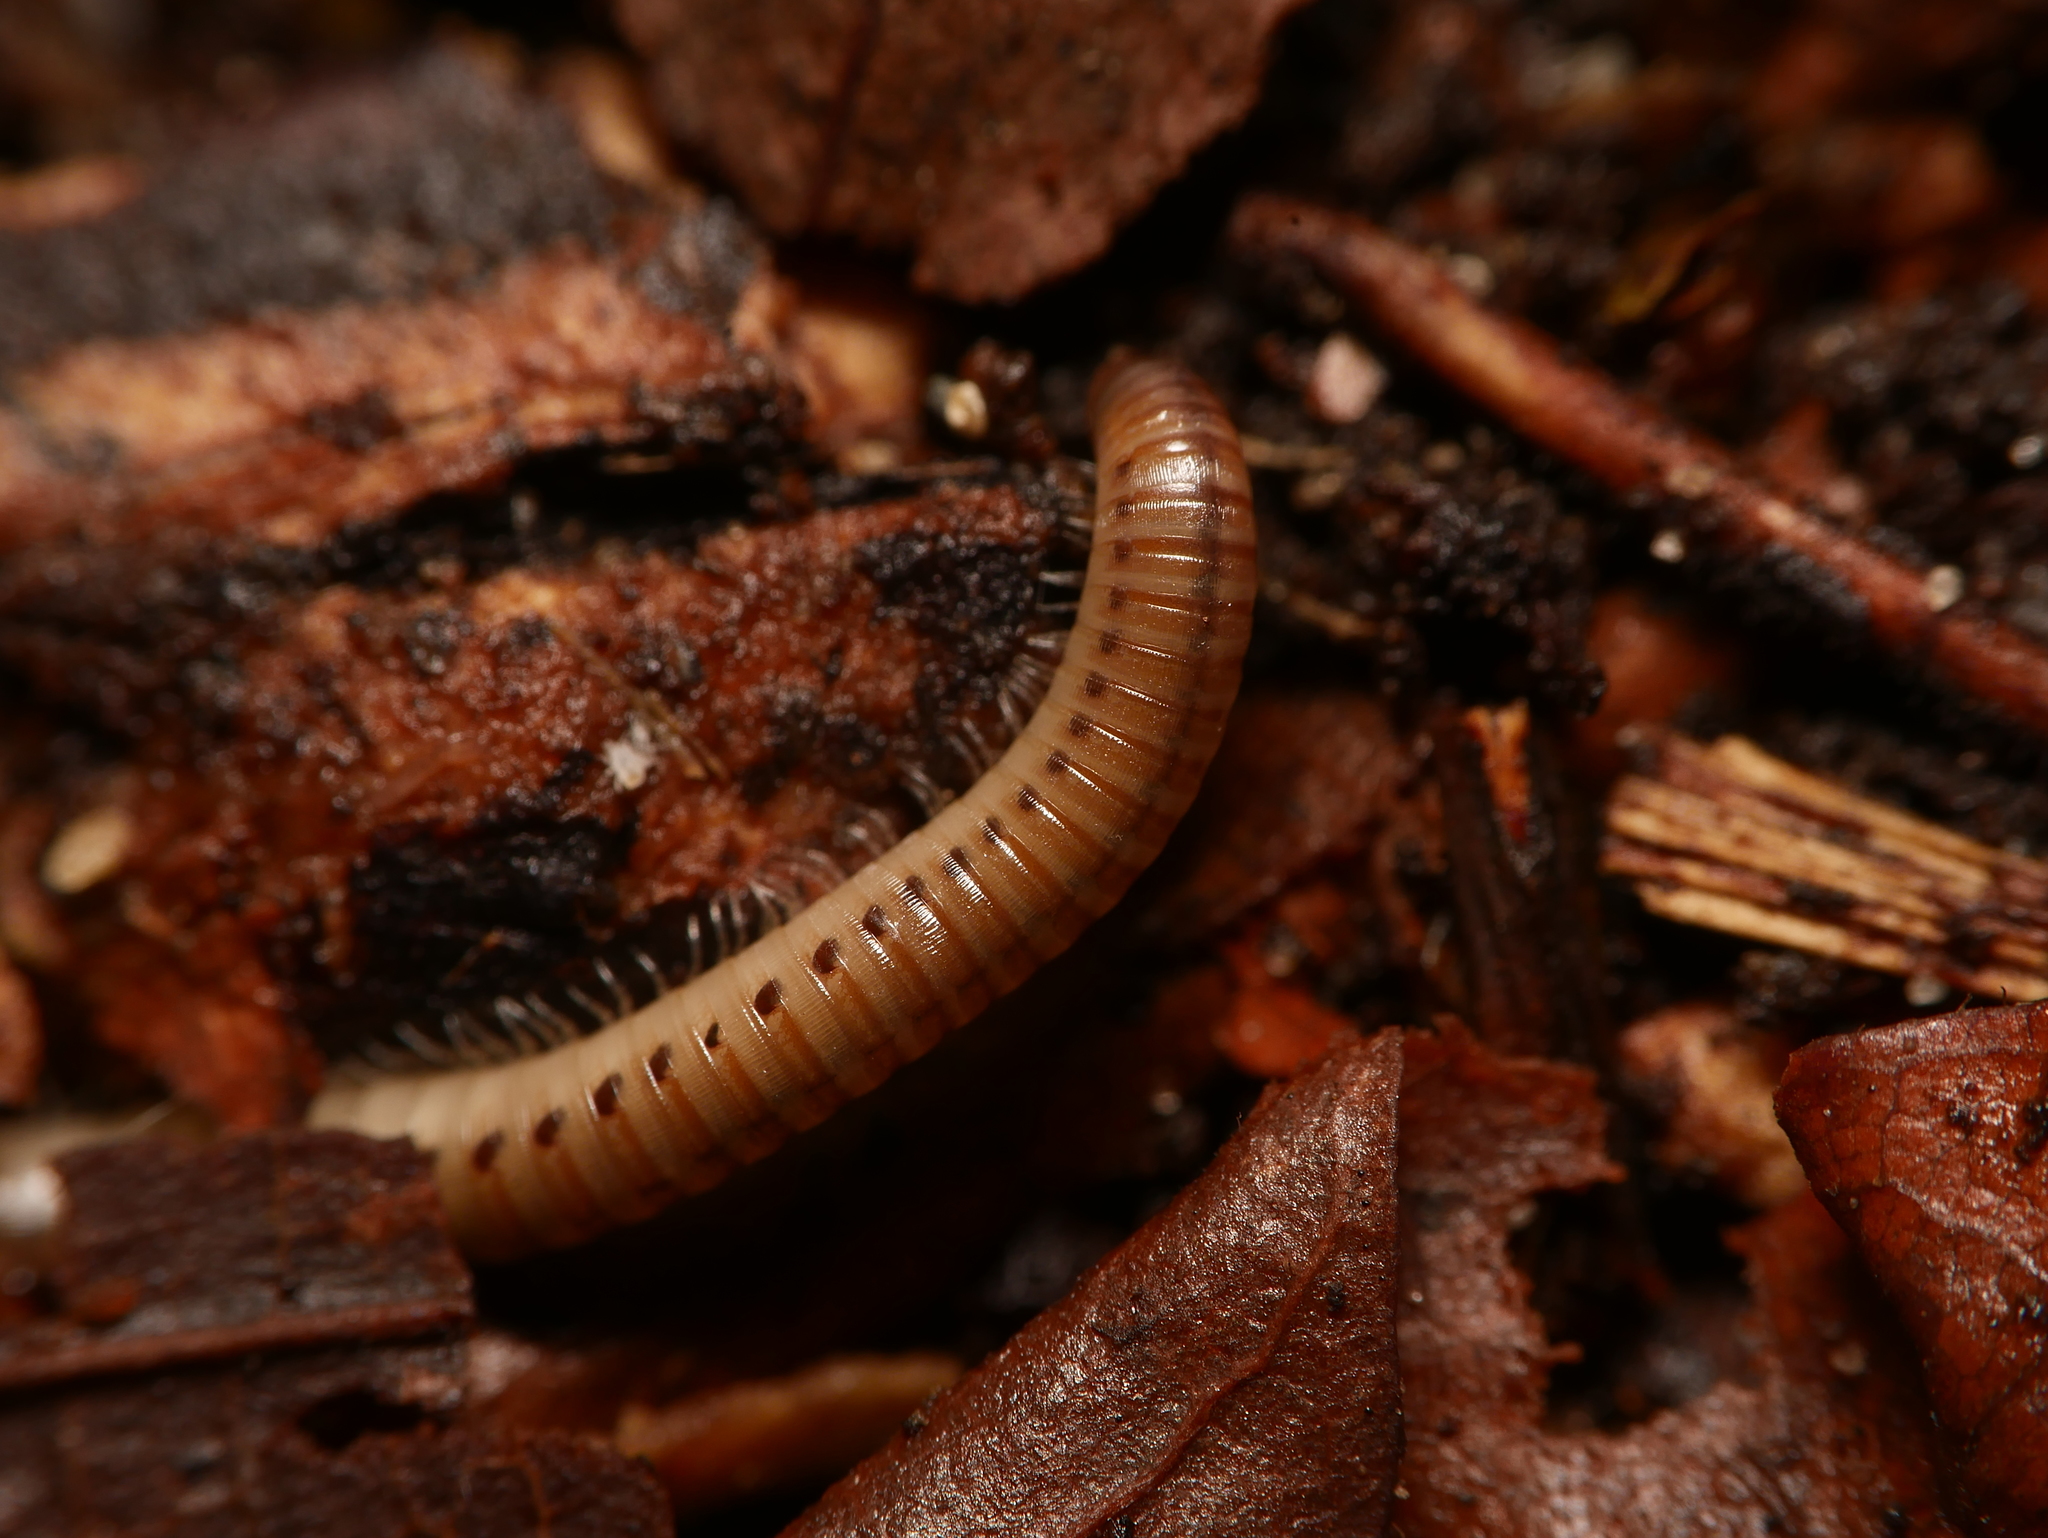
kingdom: Animalia
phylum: Arthropoda
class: Diplopoda
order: Julida
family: Julidae
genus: Cylindroiulus
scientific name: Cylindroiulus punctatus
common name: Blunt-tailed millipede
